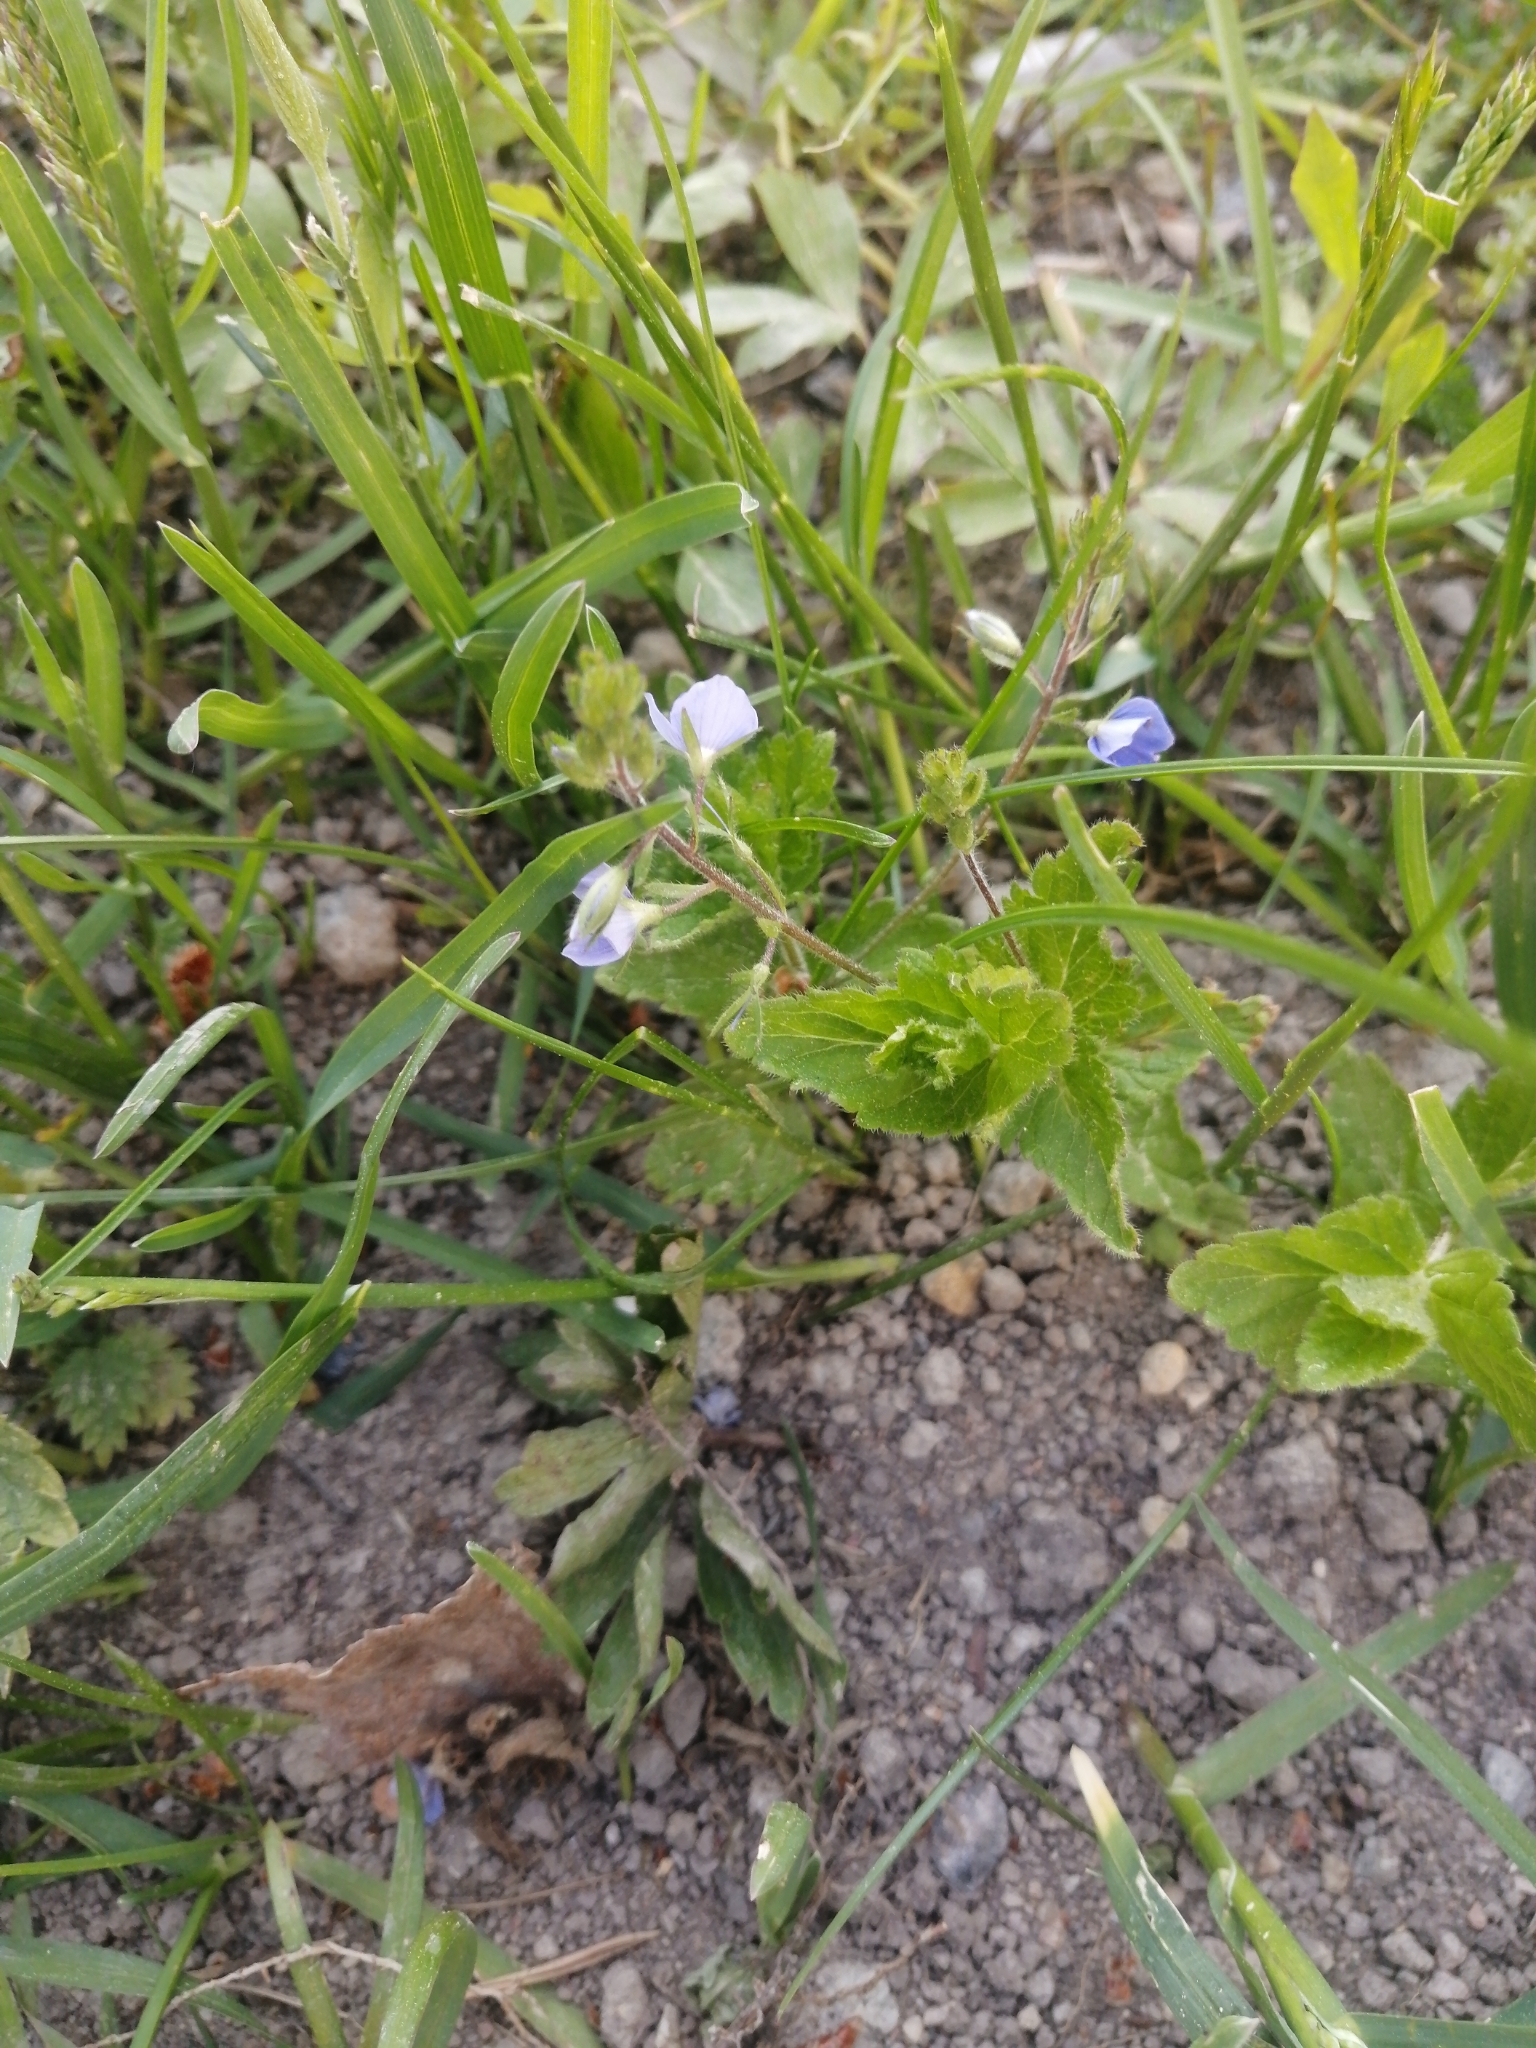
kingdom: Plantae
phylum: Tracheophyta
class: Magnoliopsida
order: Lamiales
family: Plantaginaceae
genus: Veronica
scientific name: Veronica chamaedrys
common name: Germander speedwell
